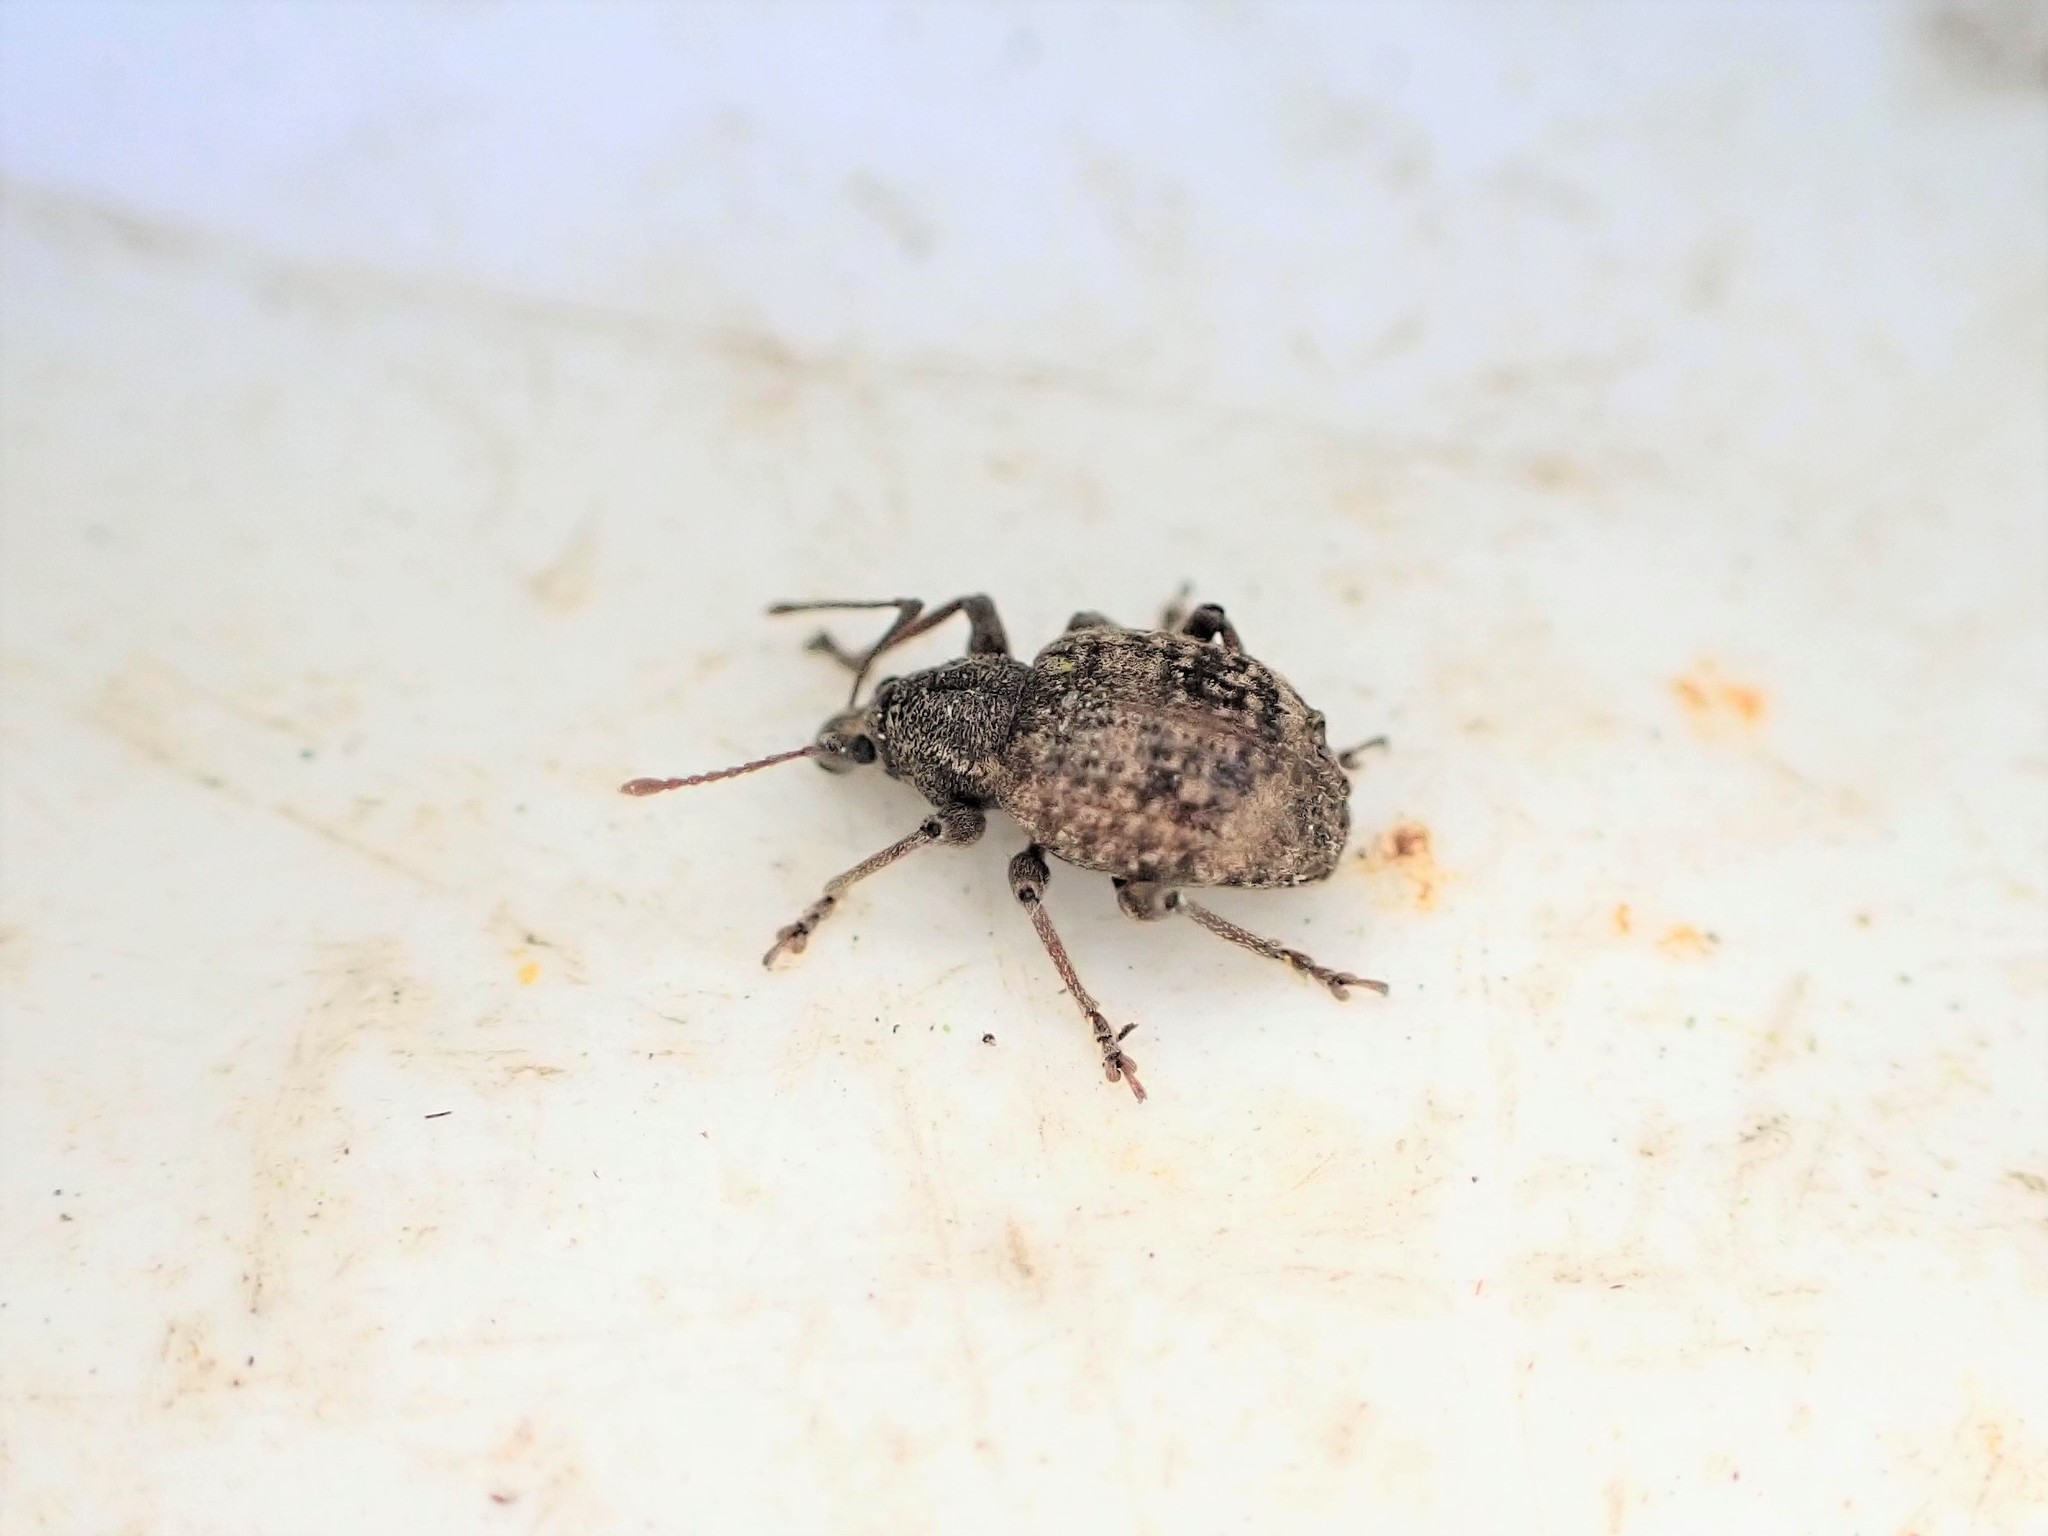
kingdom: Animalia
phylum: Arthropoda
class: Insecta
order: Coleoptera
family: Curculionidae
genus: Phlyctinus
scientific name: Phlyctinus callosus
